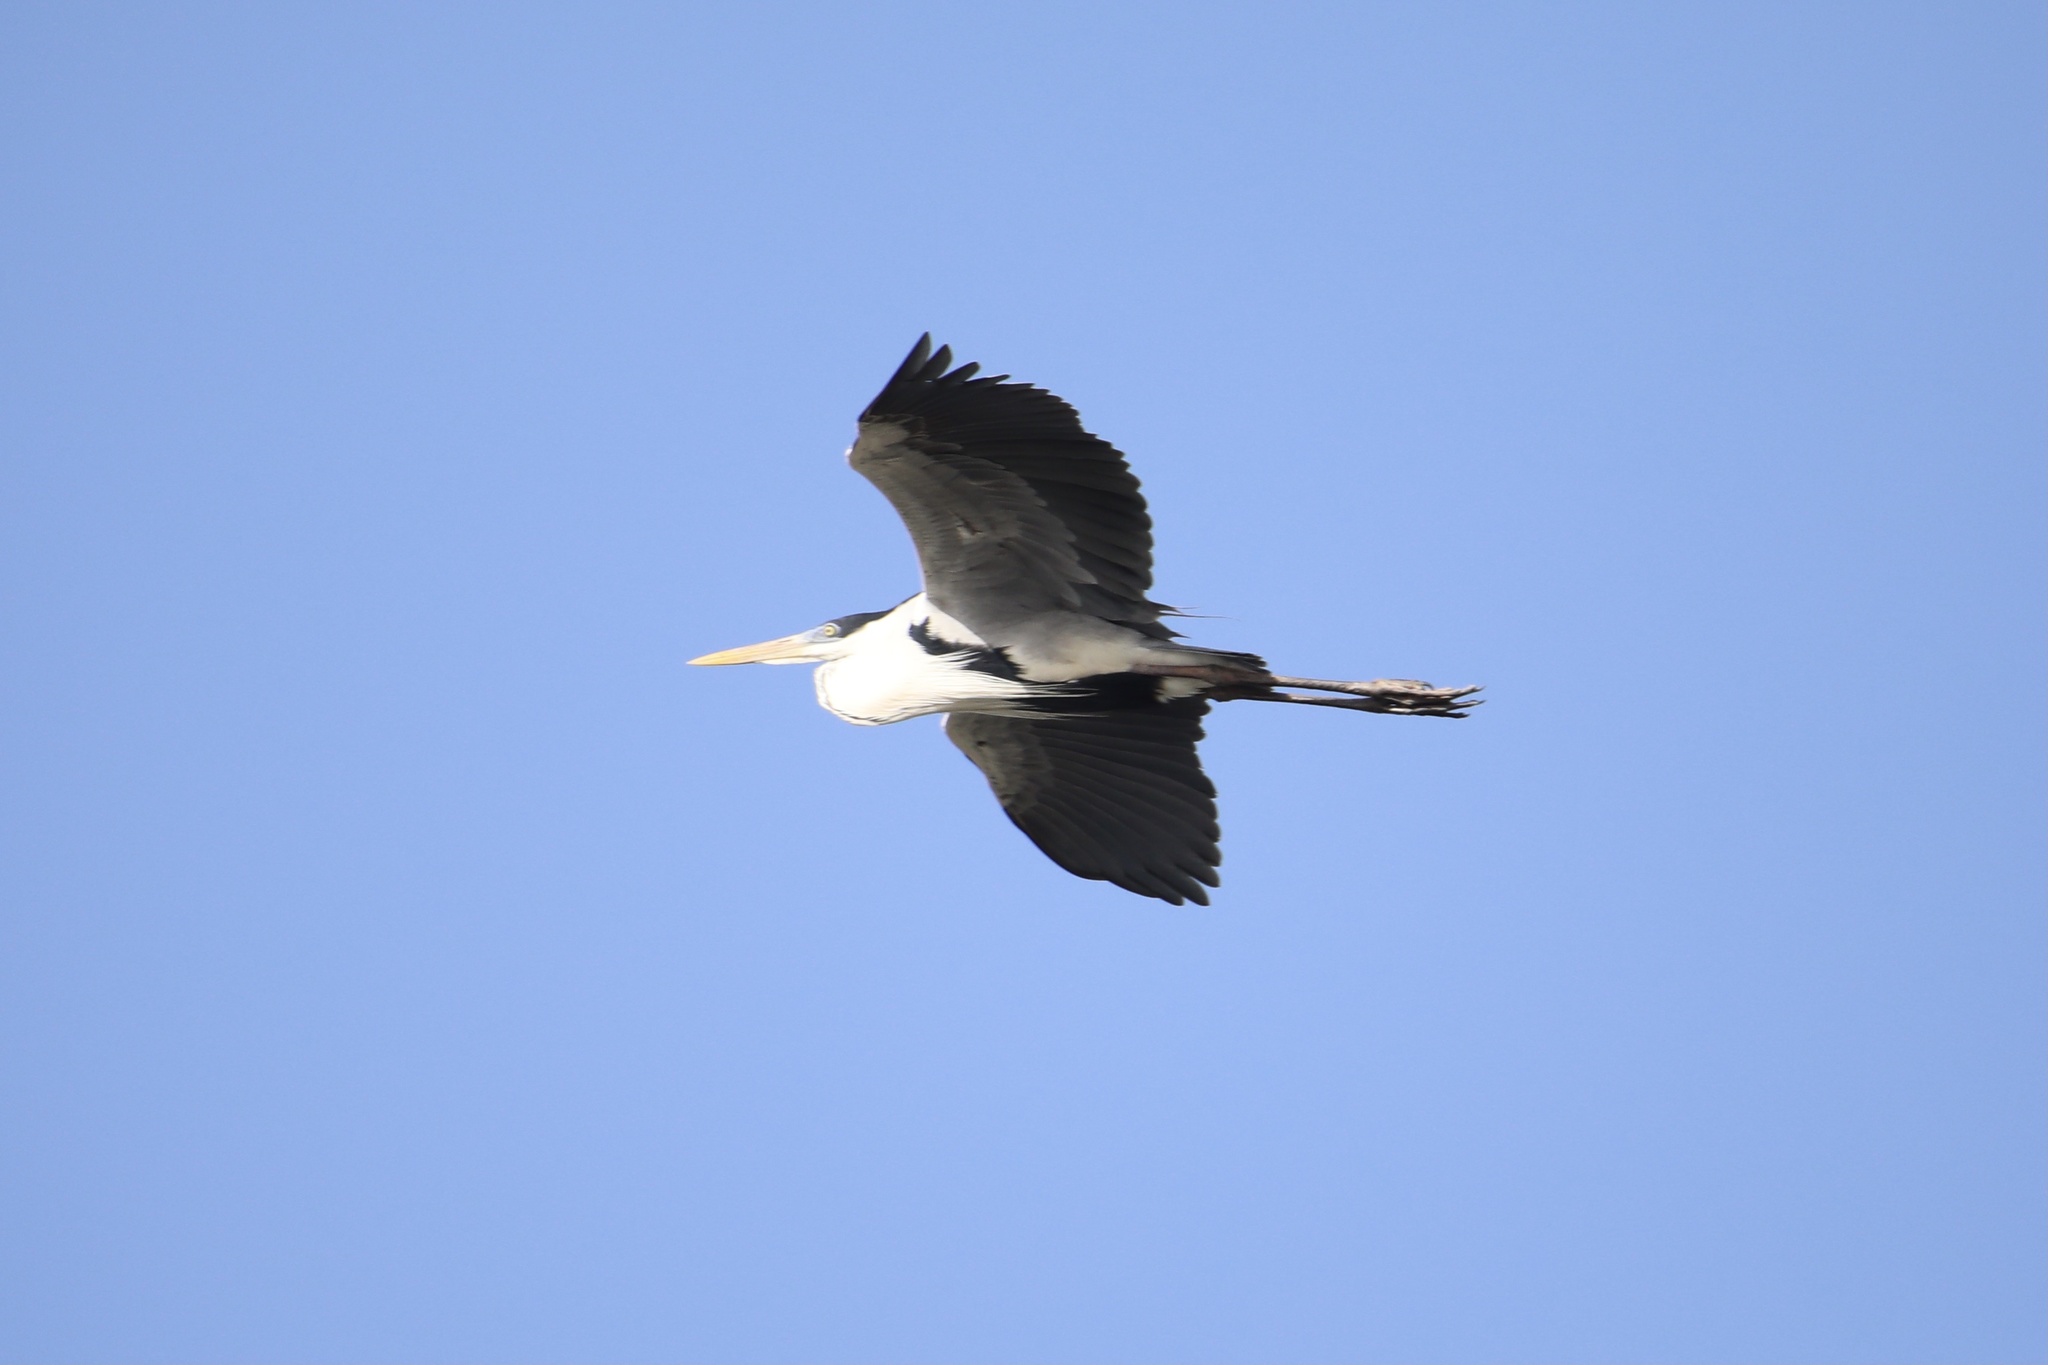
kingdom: Animalia
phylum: Chordata
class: Aves
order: Pelecaniformes
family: Ardeidae
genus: Ardea
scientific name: Ardea cocoi
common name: Cocoi heron
